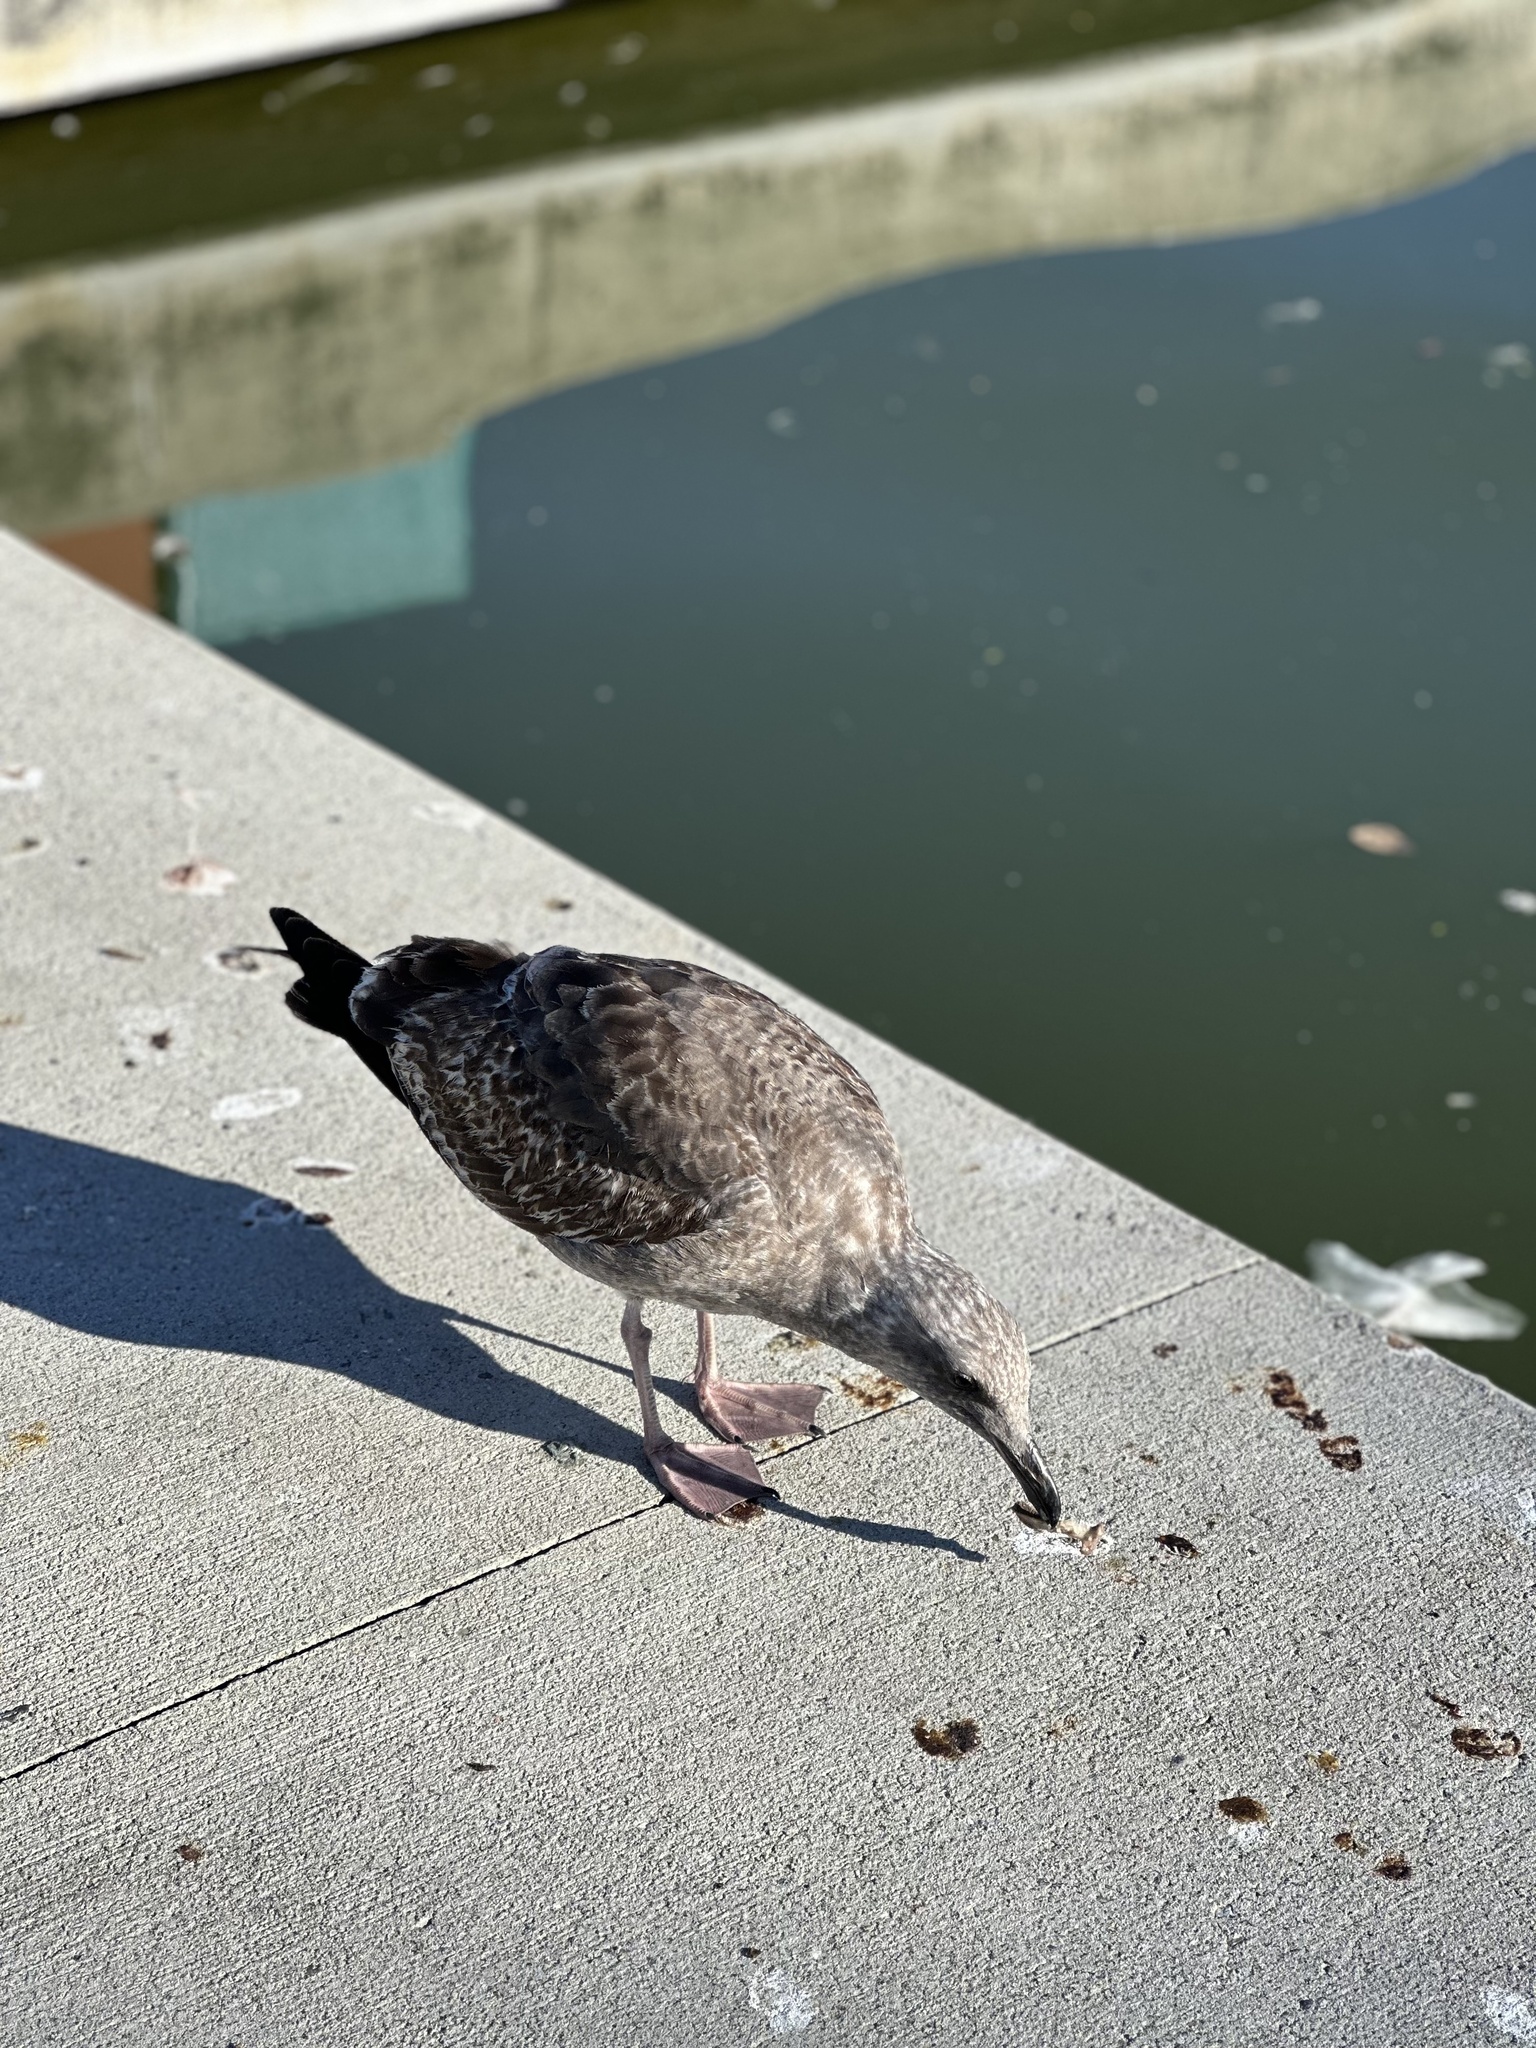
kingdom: Animalia
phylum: Chordata
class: Aves
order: Charadriiformes
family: Laridae
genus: Larus
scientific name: Larus occidentalis
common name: Western gull
